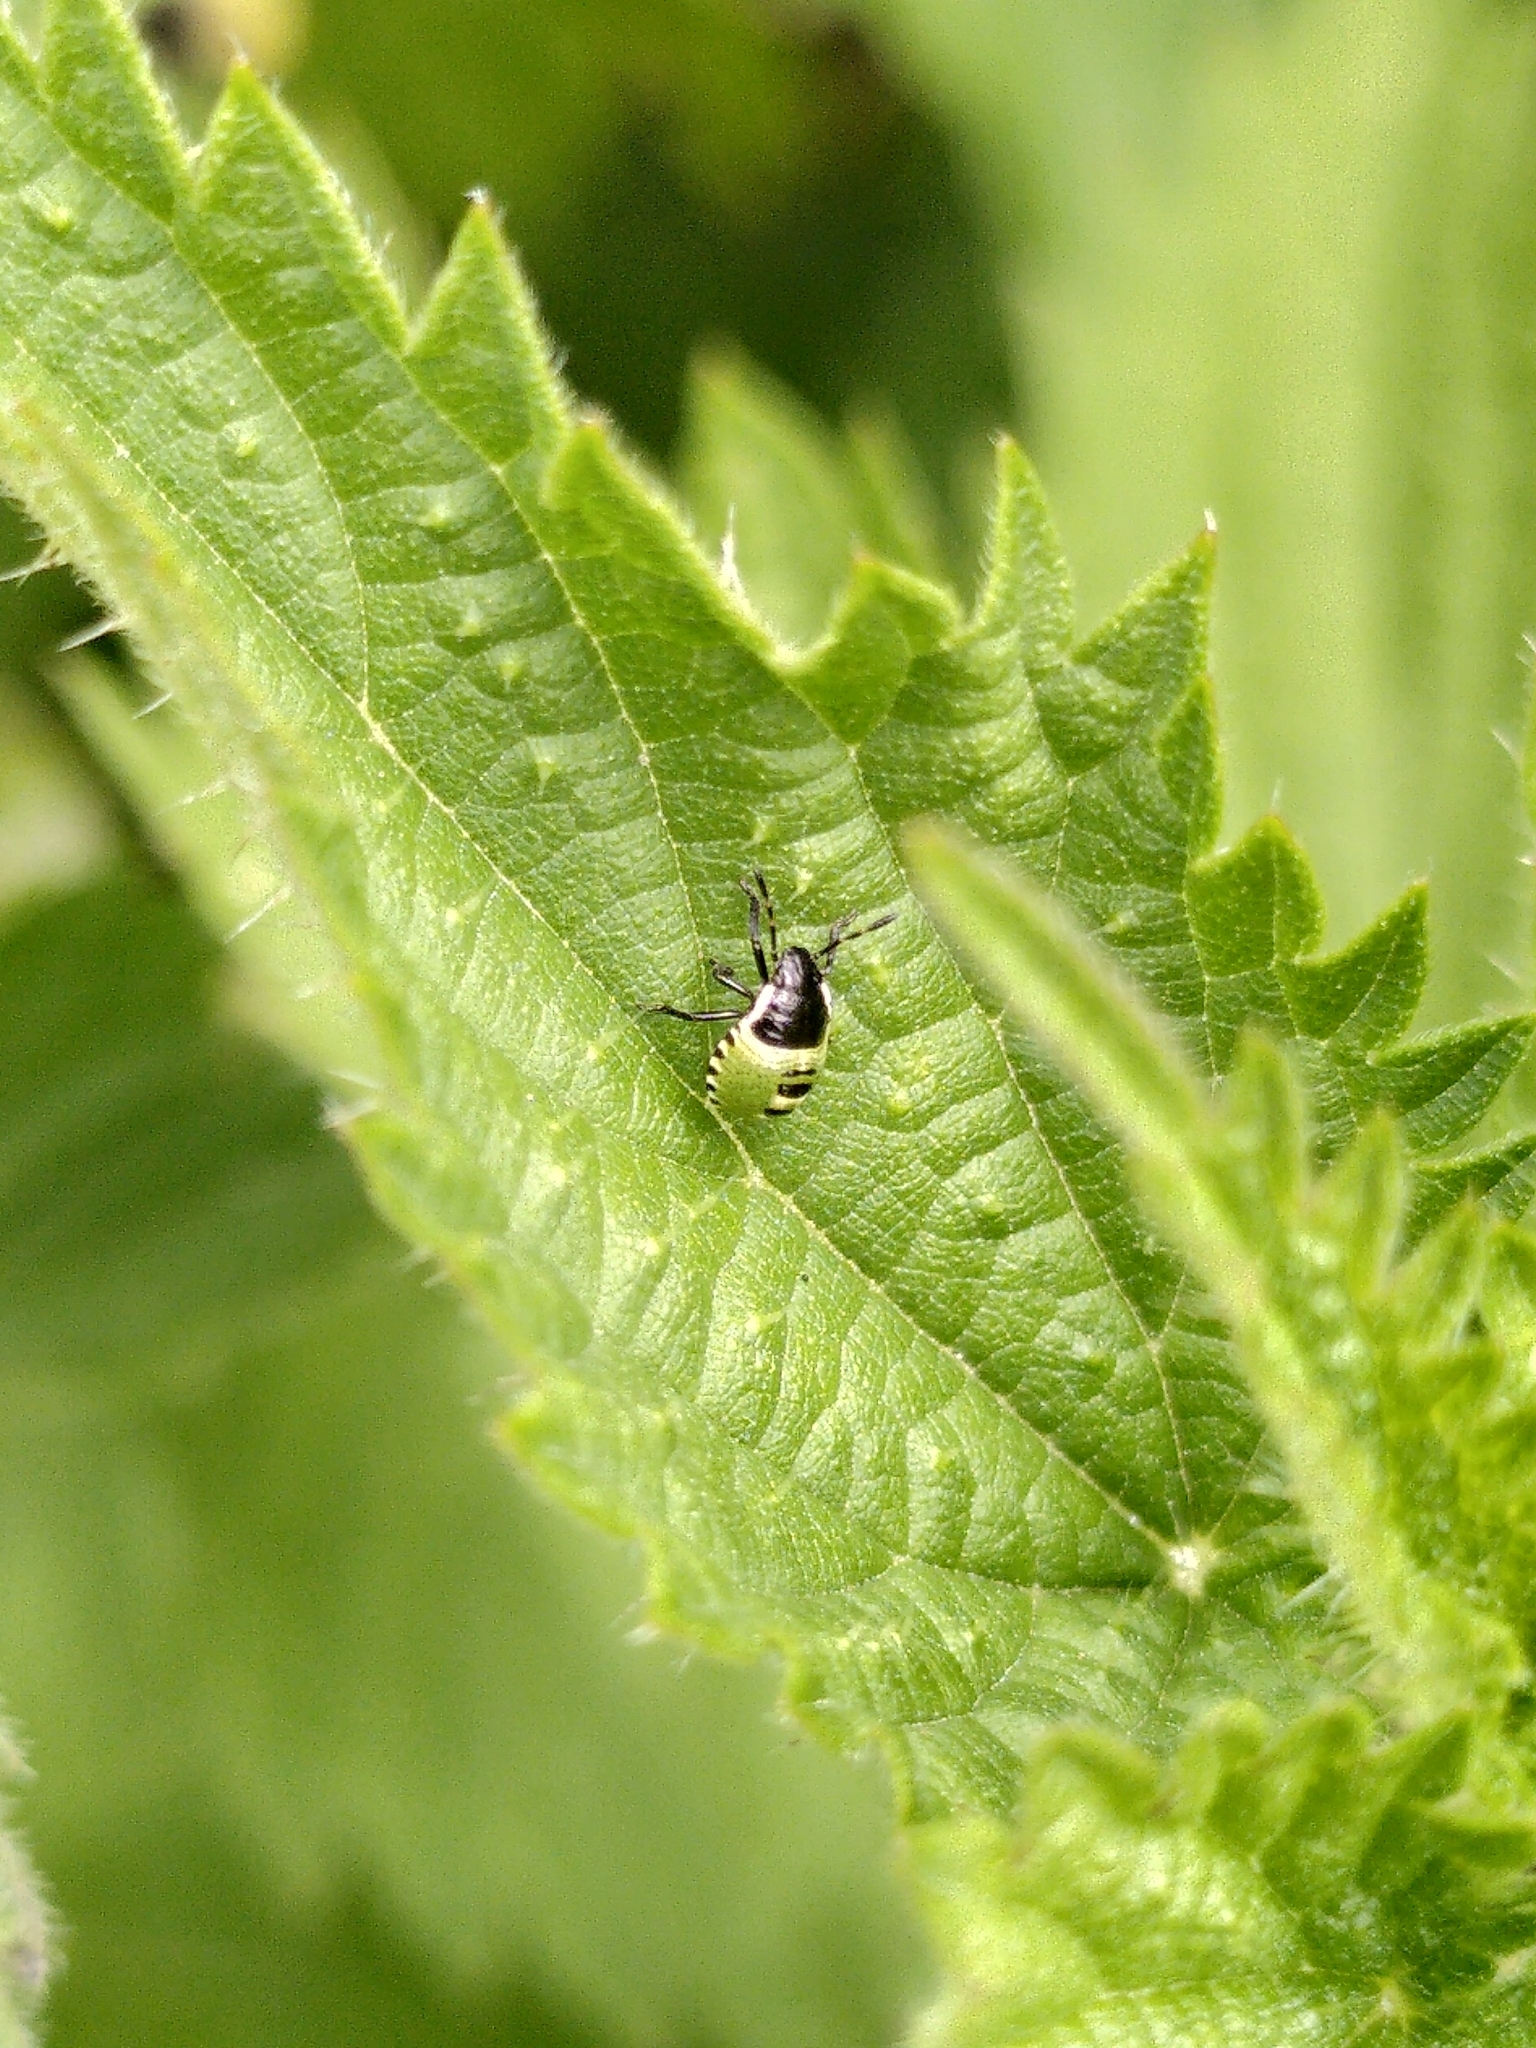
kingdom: Animalia
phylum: Arthropoda
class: Insecta
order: Hemiptera
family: Pentatomidae
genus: Palomena
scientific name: Palomena prasina
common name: Green shieldbug
